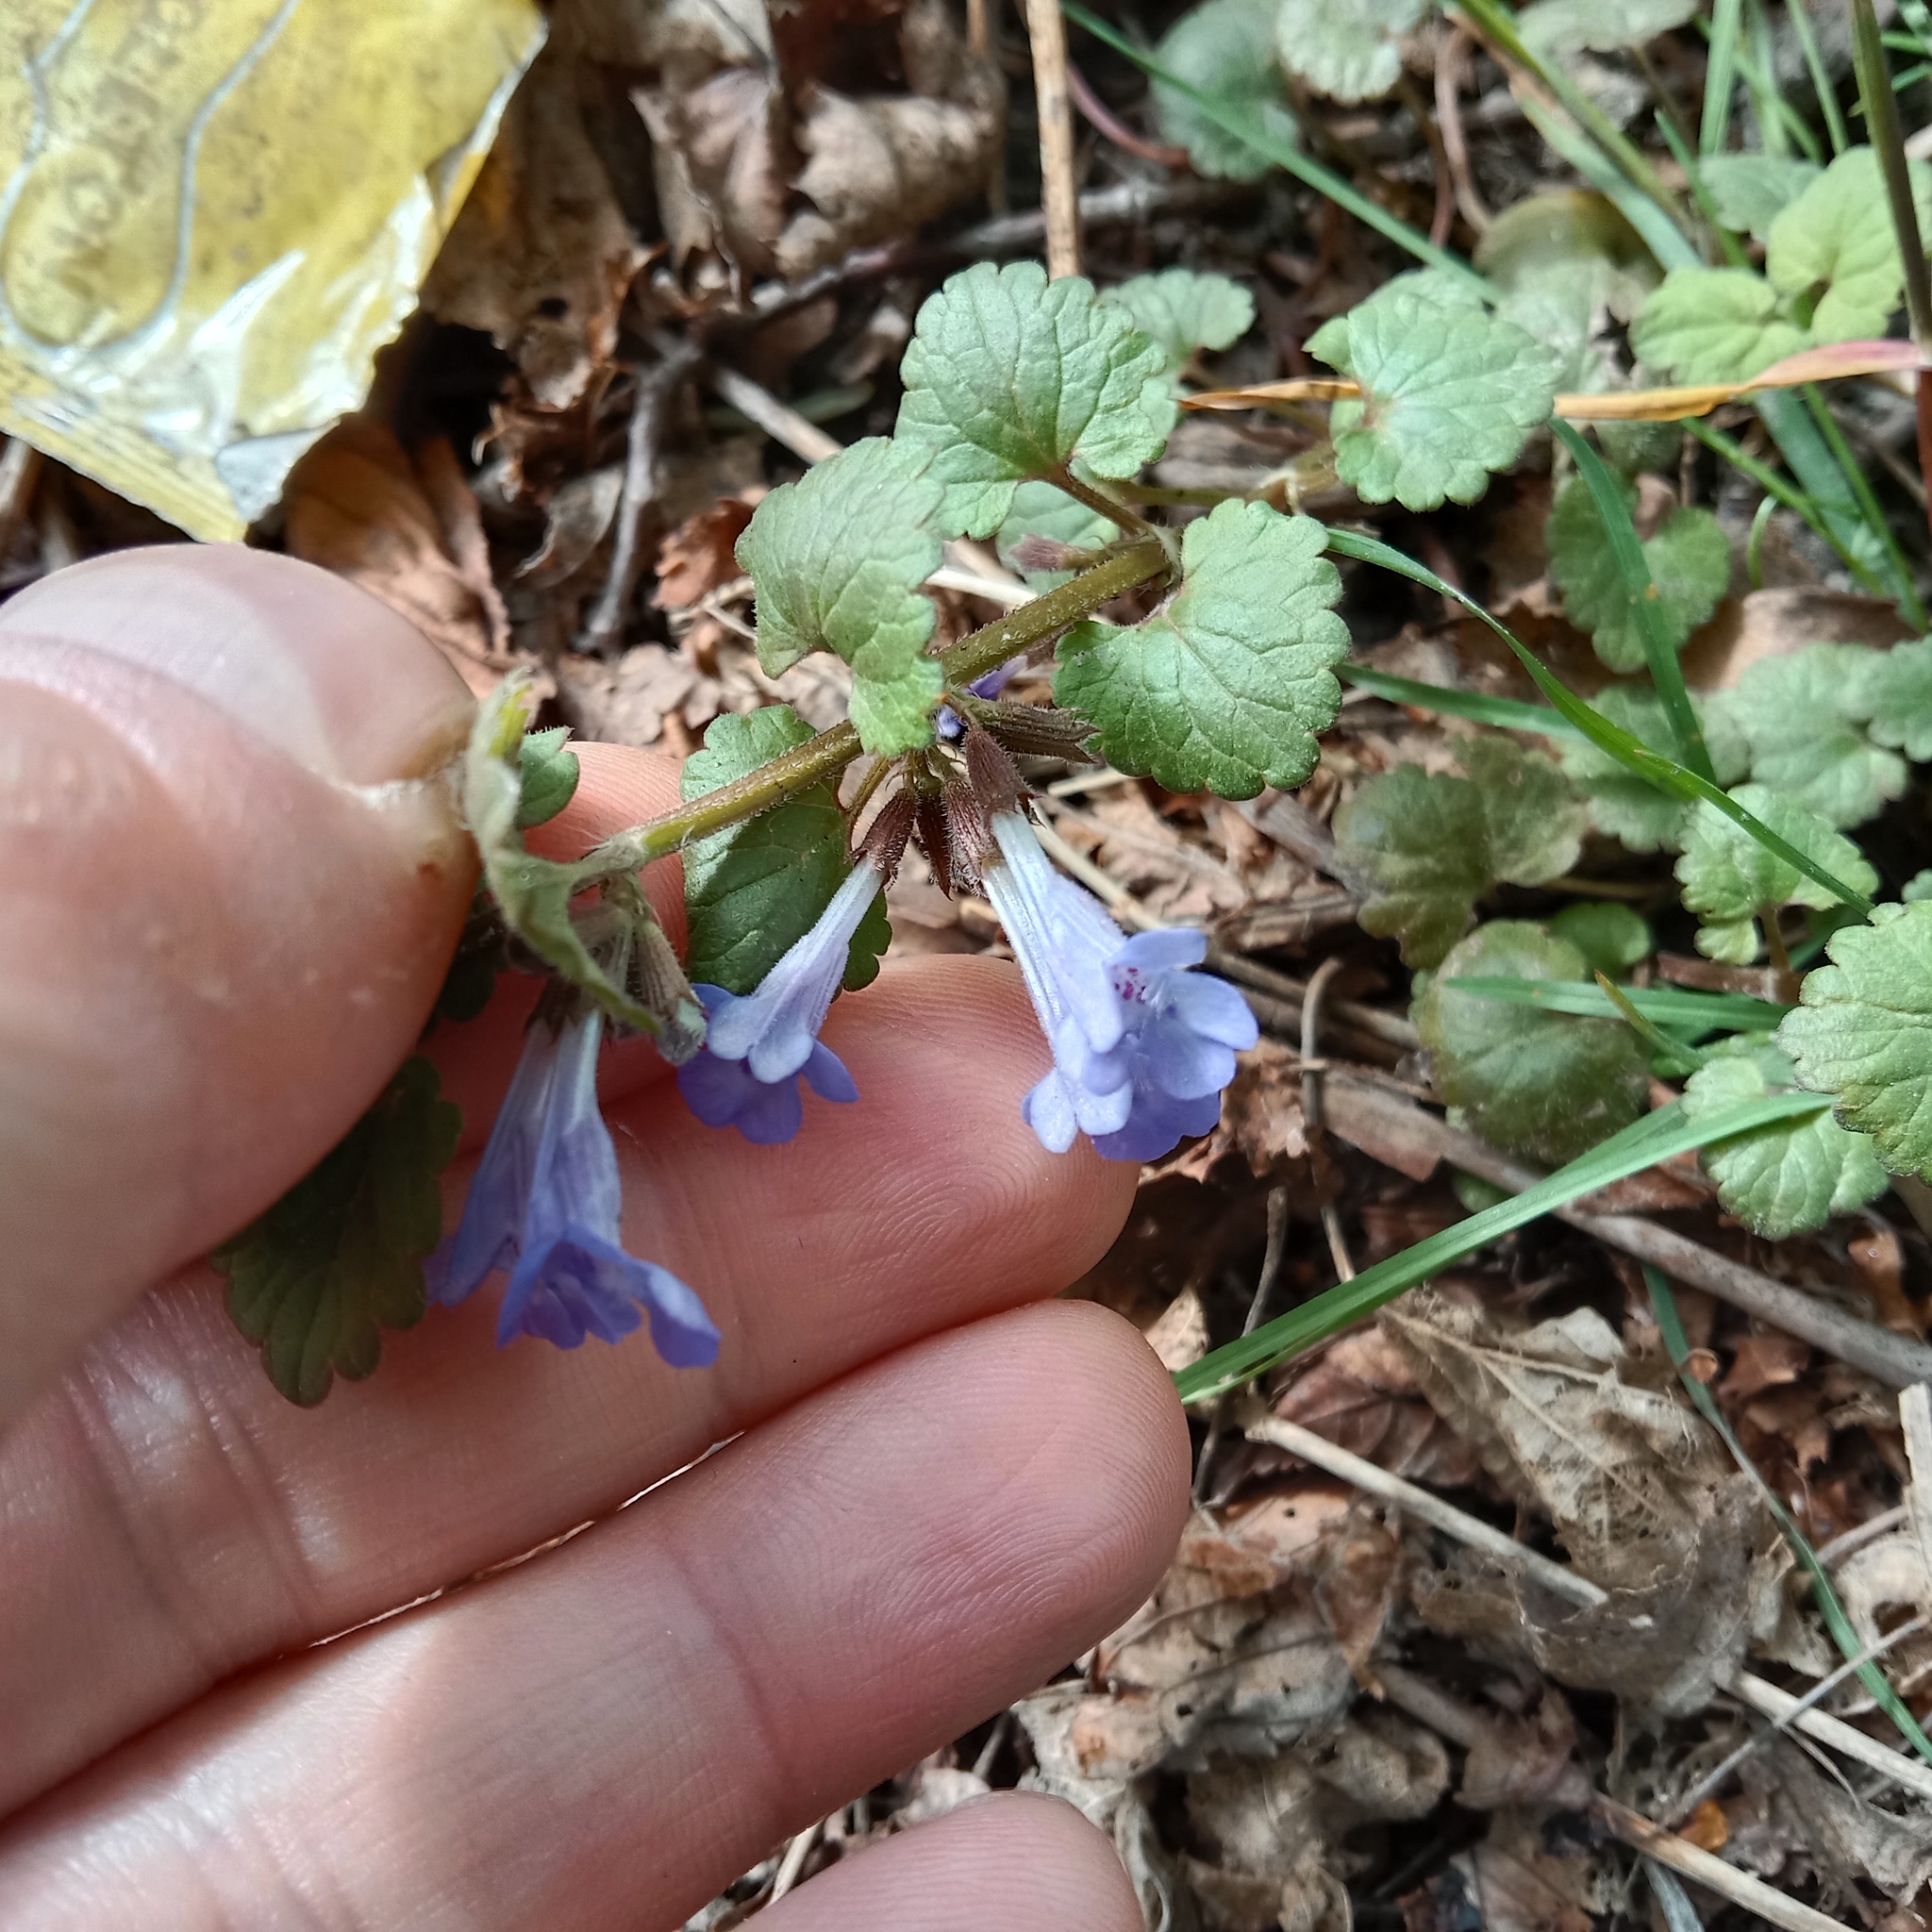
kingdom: Plantae
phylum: Tracheophyta
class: Magnoliopsida
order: Lamiales
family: Lamiaceae
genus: Glechoma
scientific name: Glechoma hederacea
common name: Ground ivy
